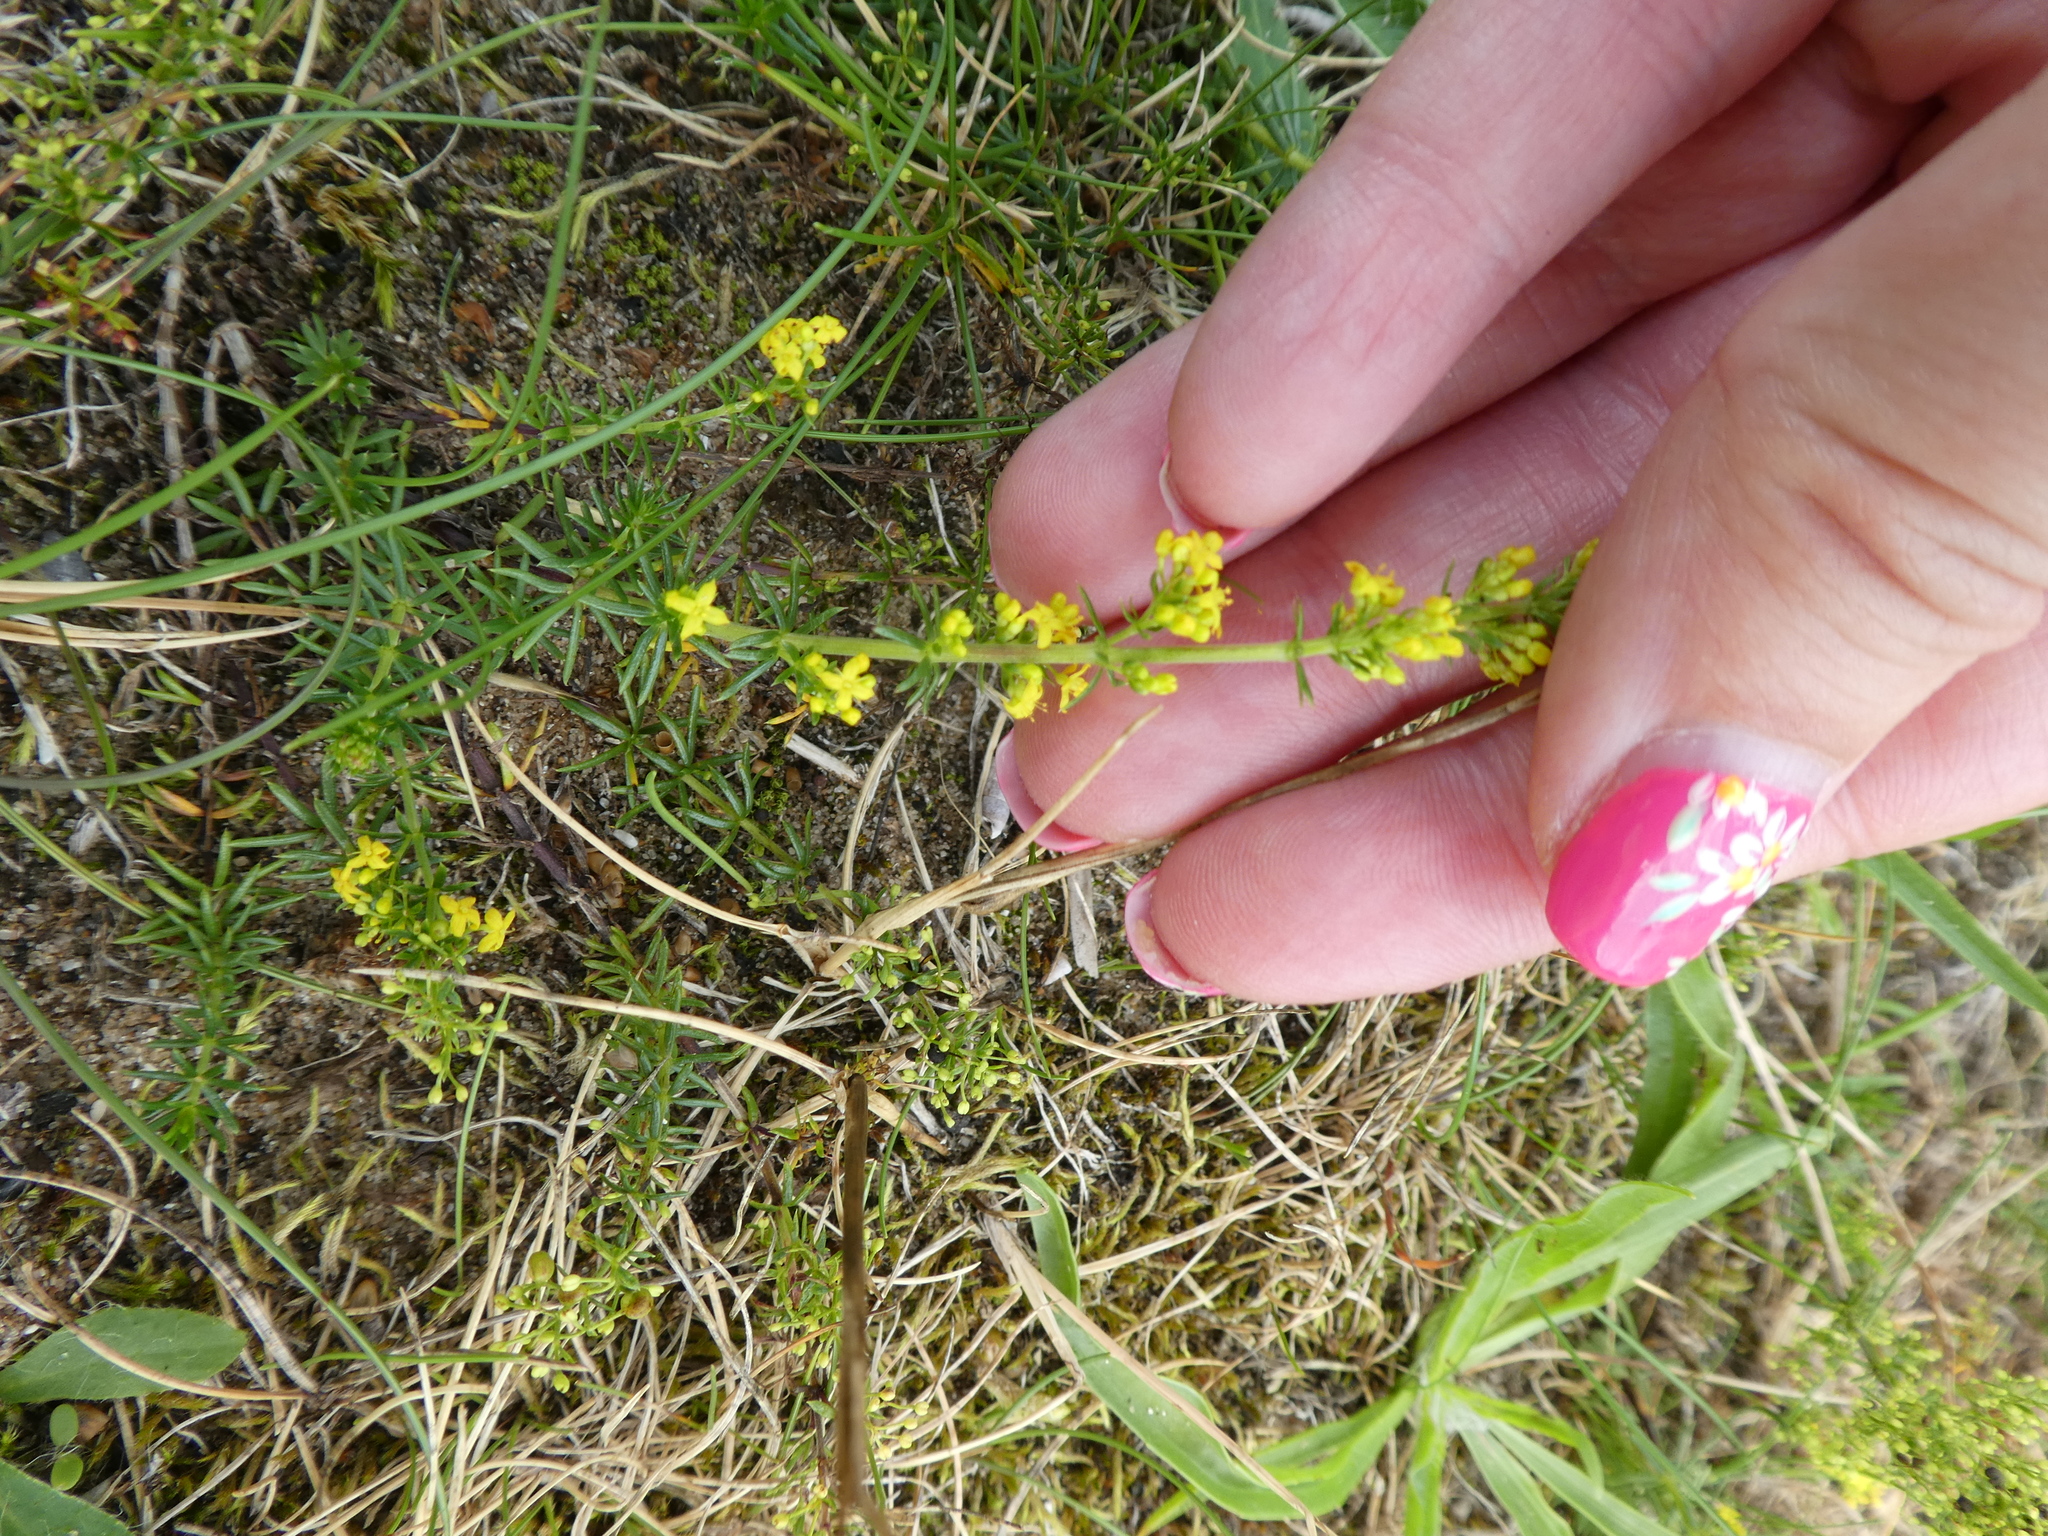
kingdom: Plantae
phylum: Tracheophyta
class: Magnoliopsida
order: Gentianales
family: Rubiaceae
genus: Galium
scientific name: Galium verum
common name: Lady's bedstraw
